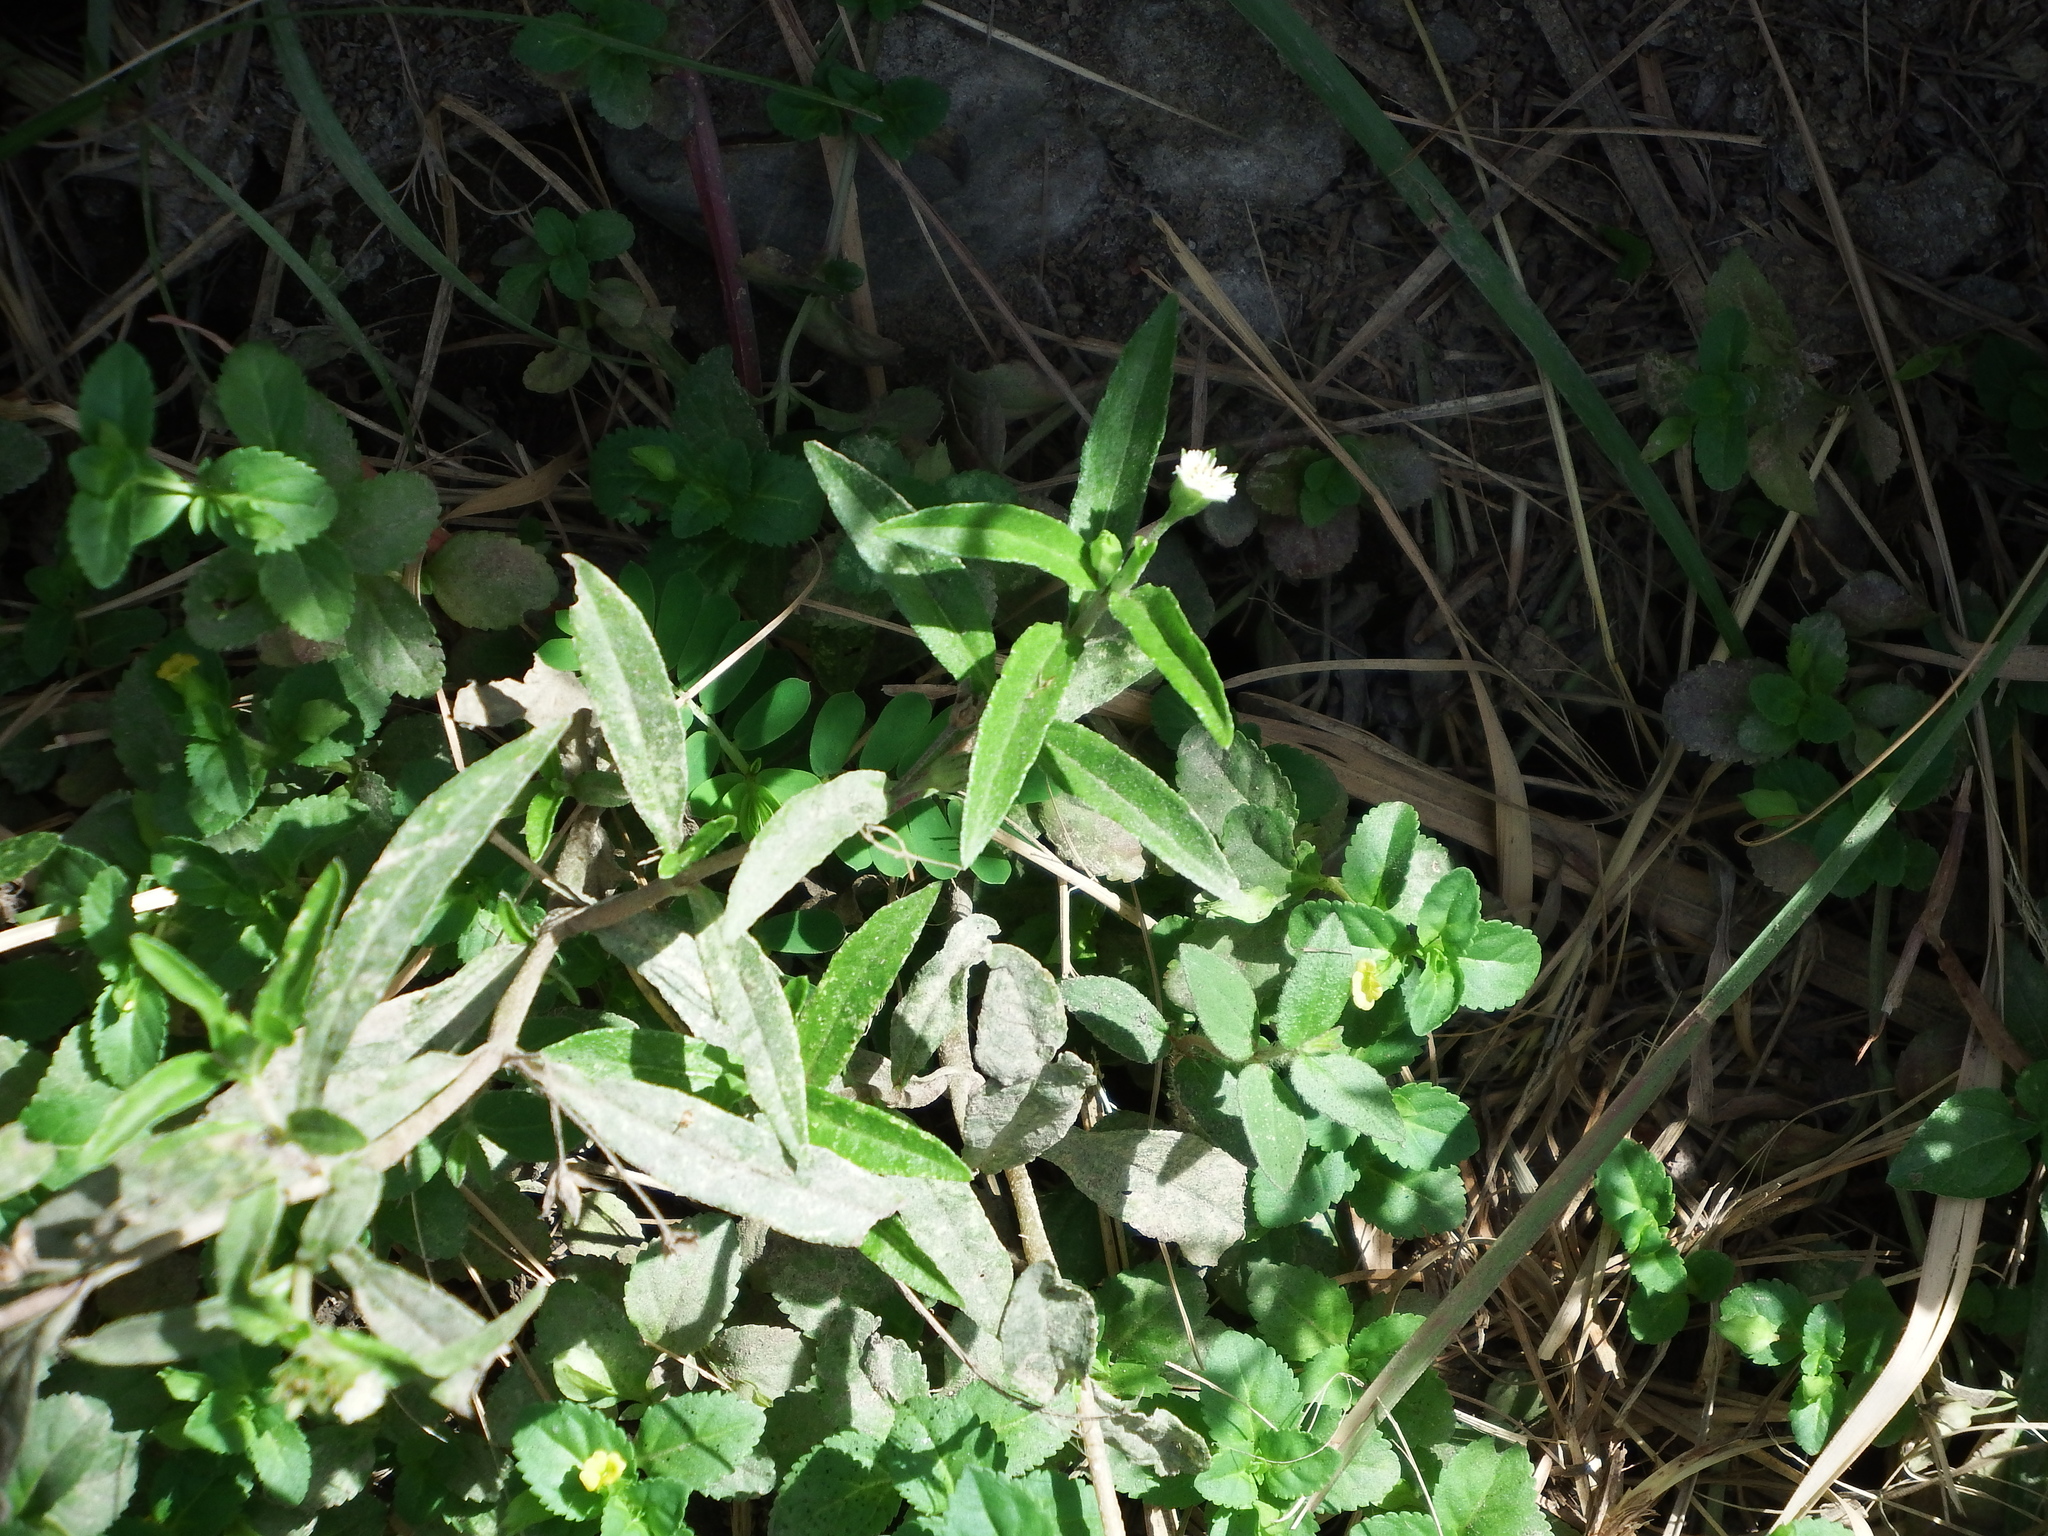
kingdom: Plantae
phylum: Tracheophyta
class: Magnoliopsida
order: Asterales
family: Asteraceae
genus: Eclipta
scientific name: Eclipta prostrata
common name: False daisy
